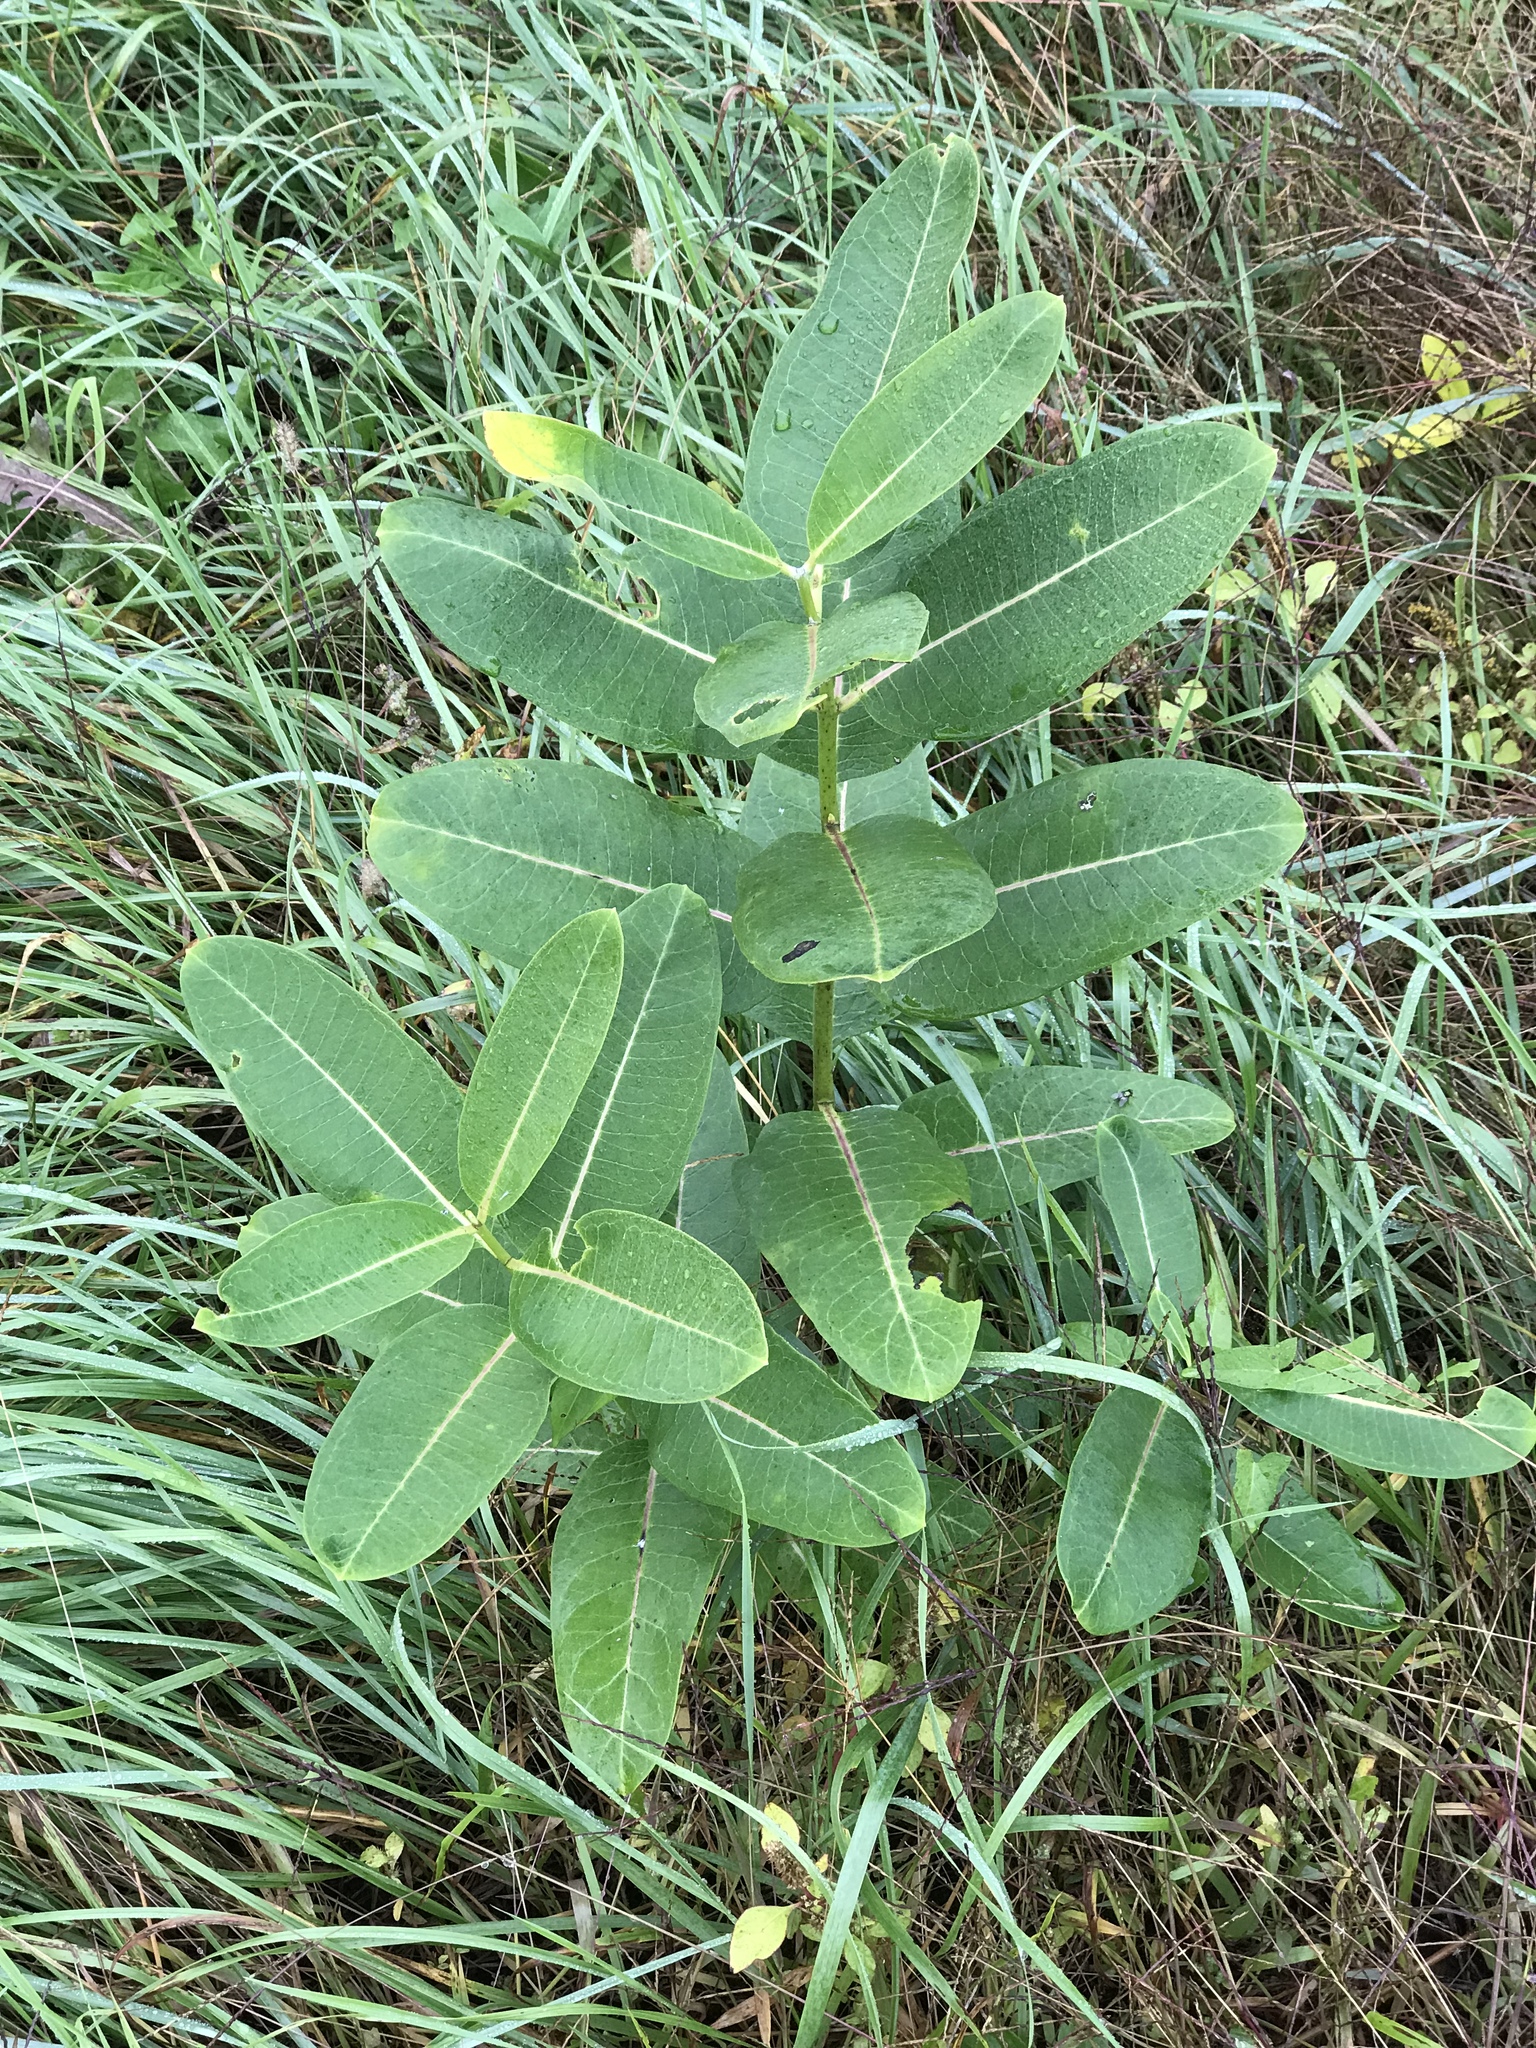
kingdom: Plantae
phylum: Tracheophyta
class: Magnoliopsida
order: Gentianales
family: Apocynaceae
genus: Asclepias
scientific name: Asclepias syriaca
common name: Common milkweed
